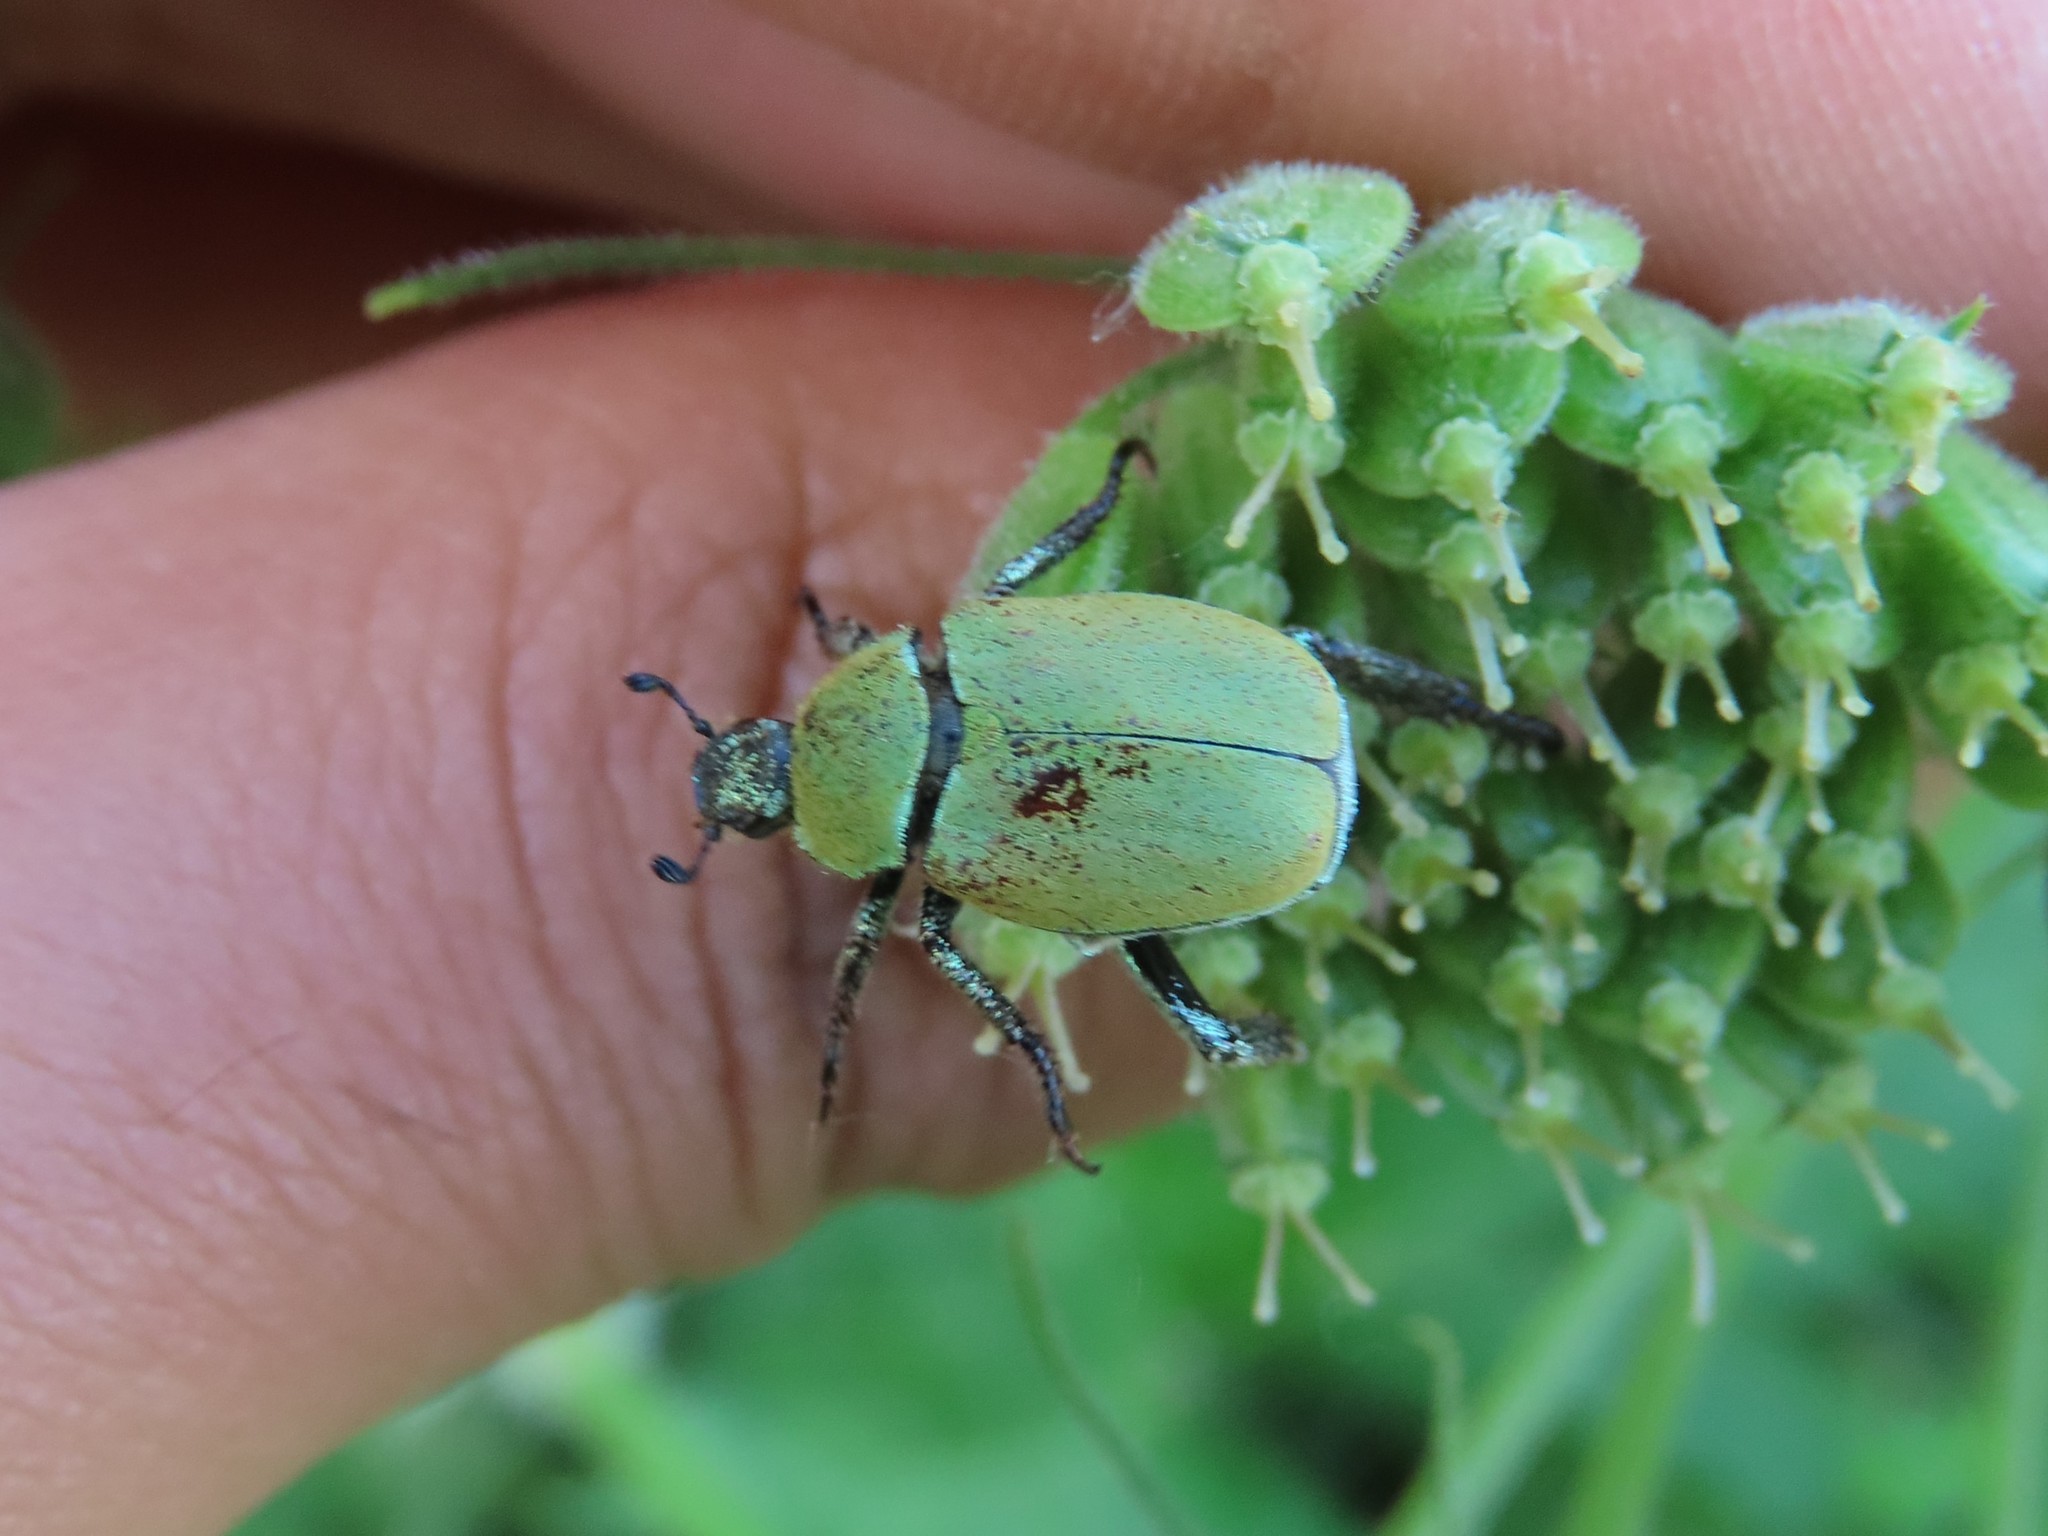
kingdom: Animalia
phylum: Arthropoda
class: Insecta
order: Coleoptera
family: Scarabaeidae
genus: Hoplia
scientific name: Hoplia argentea
